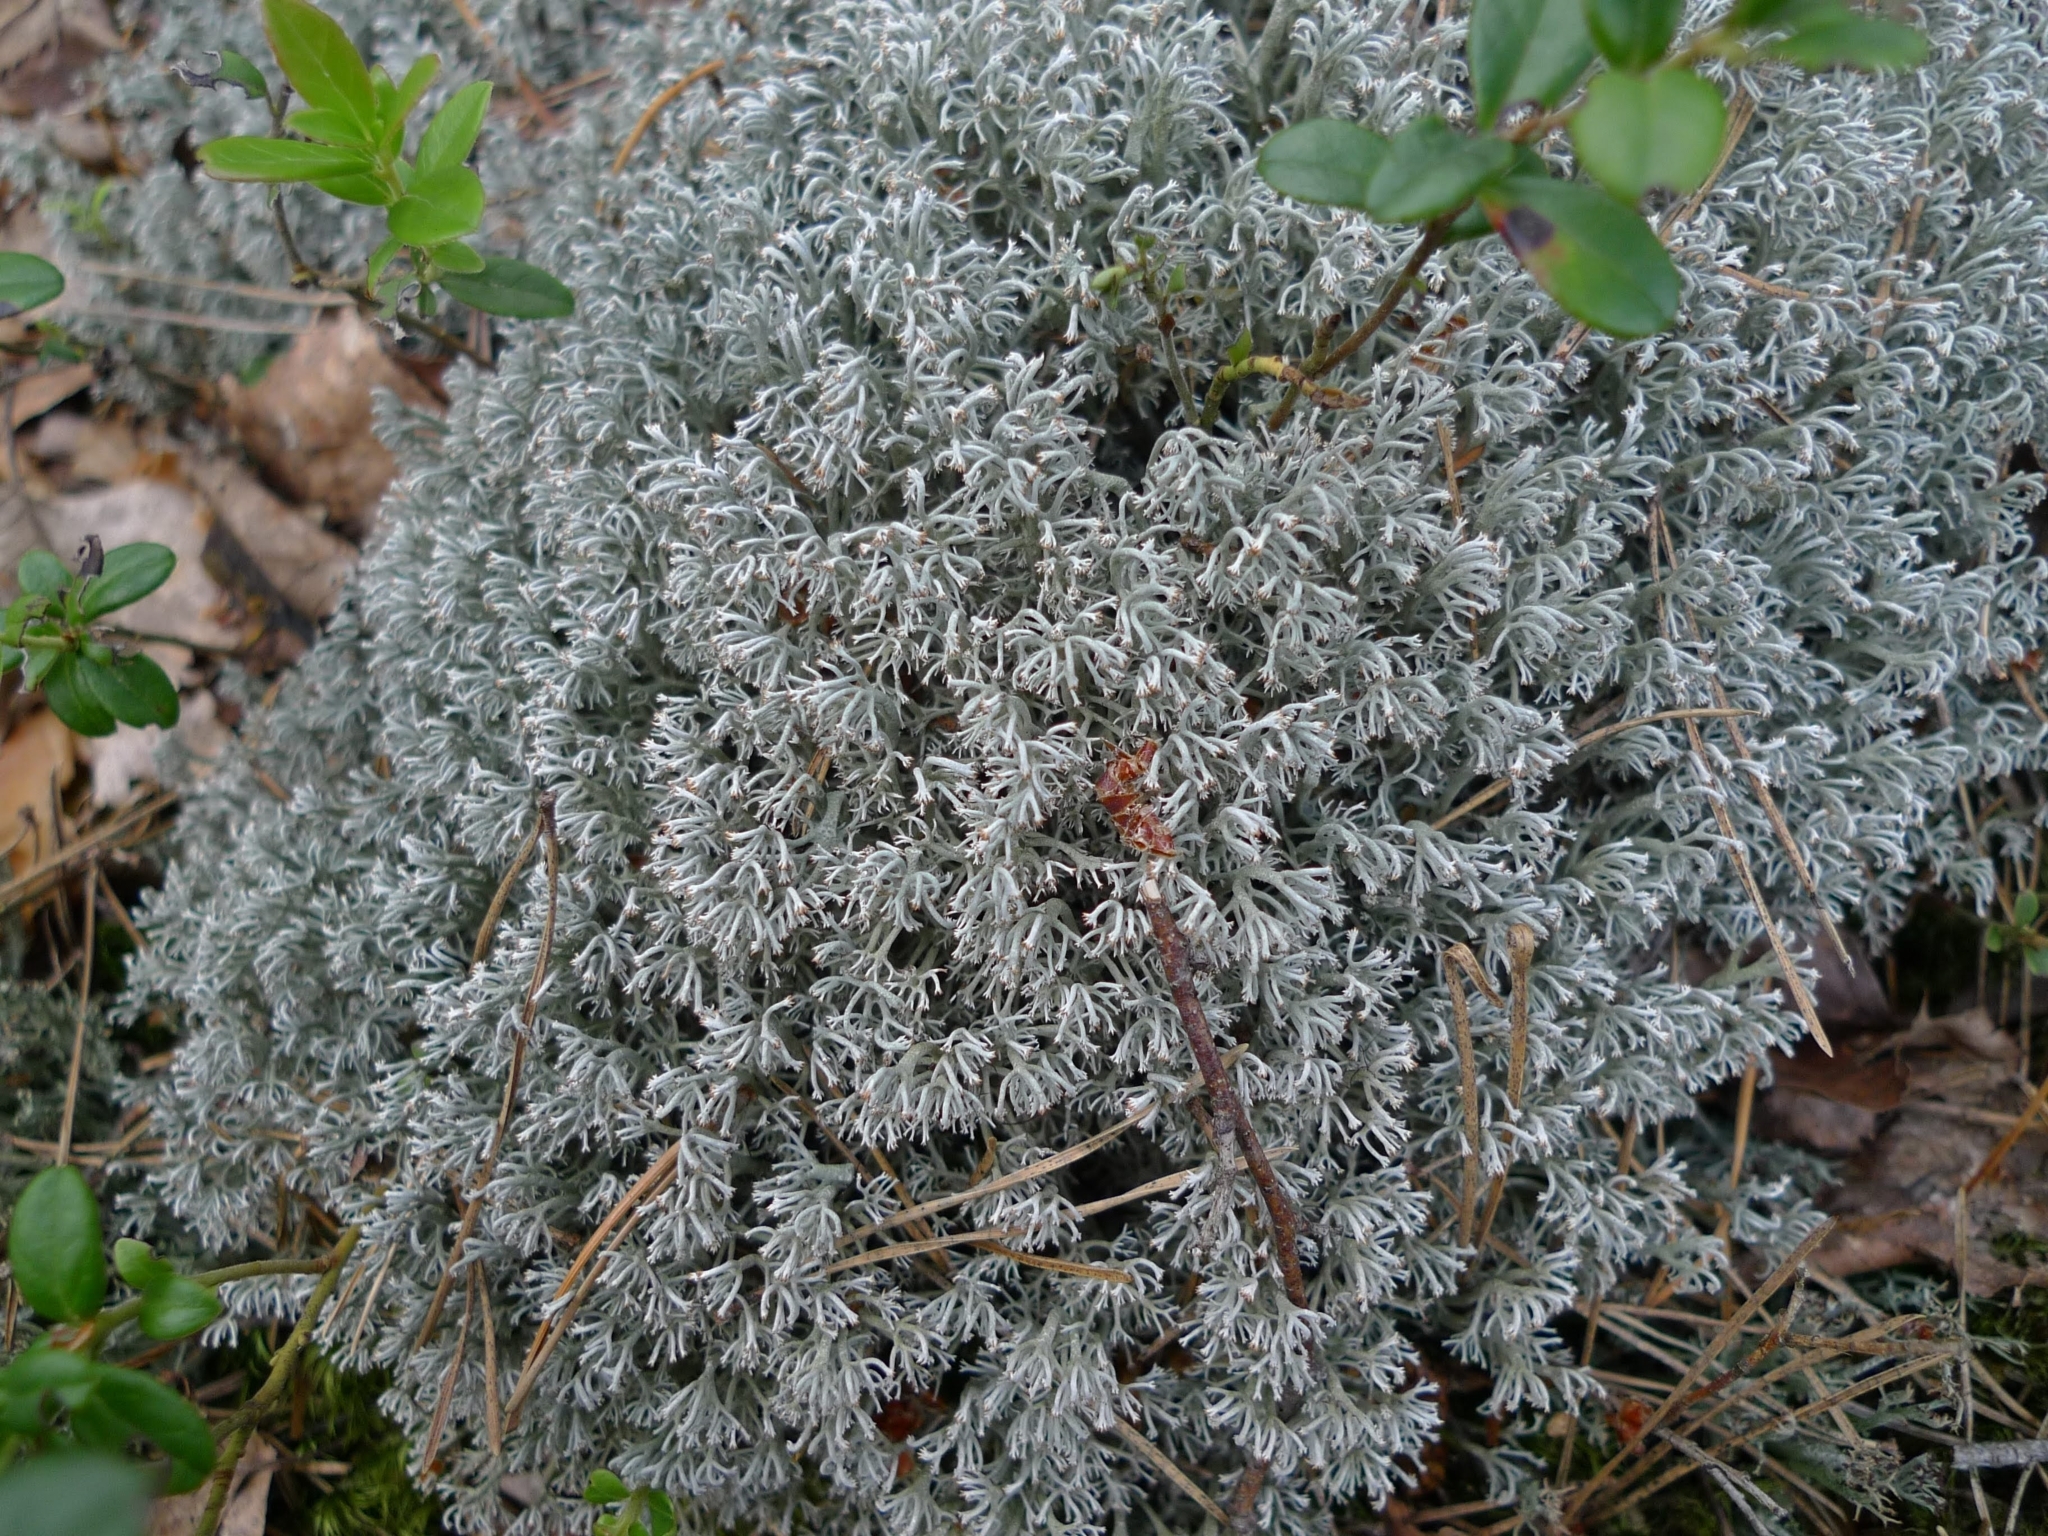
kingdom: Fungi
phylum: Ascomycota
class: Lecanoromycetes
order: Lecanorales
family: Cladoniaceae
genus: Cladonia
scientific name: Cladonia rangiferina
